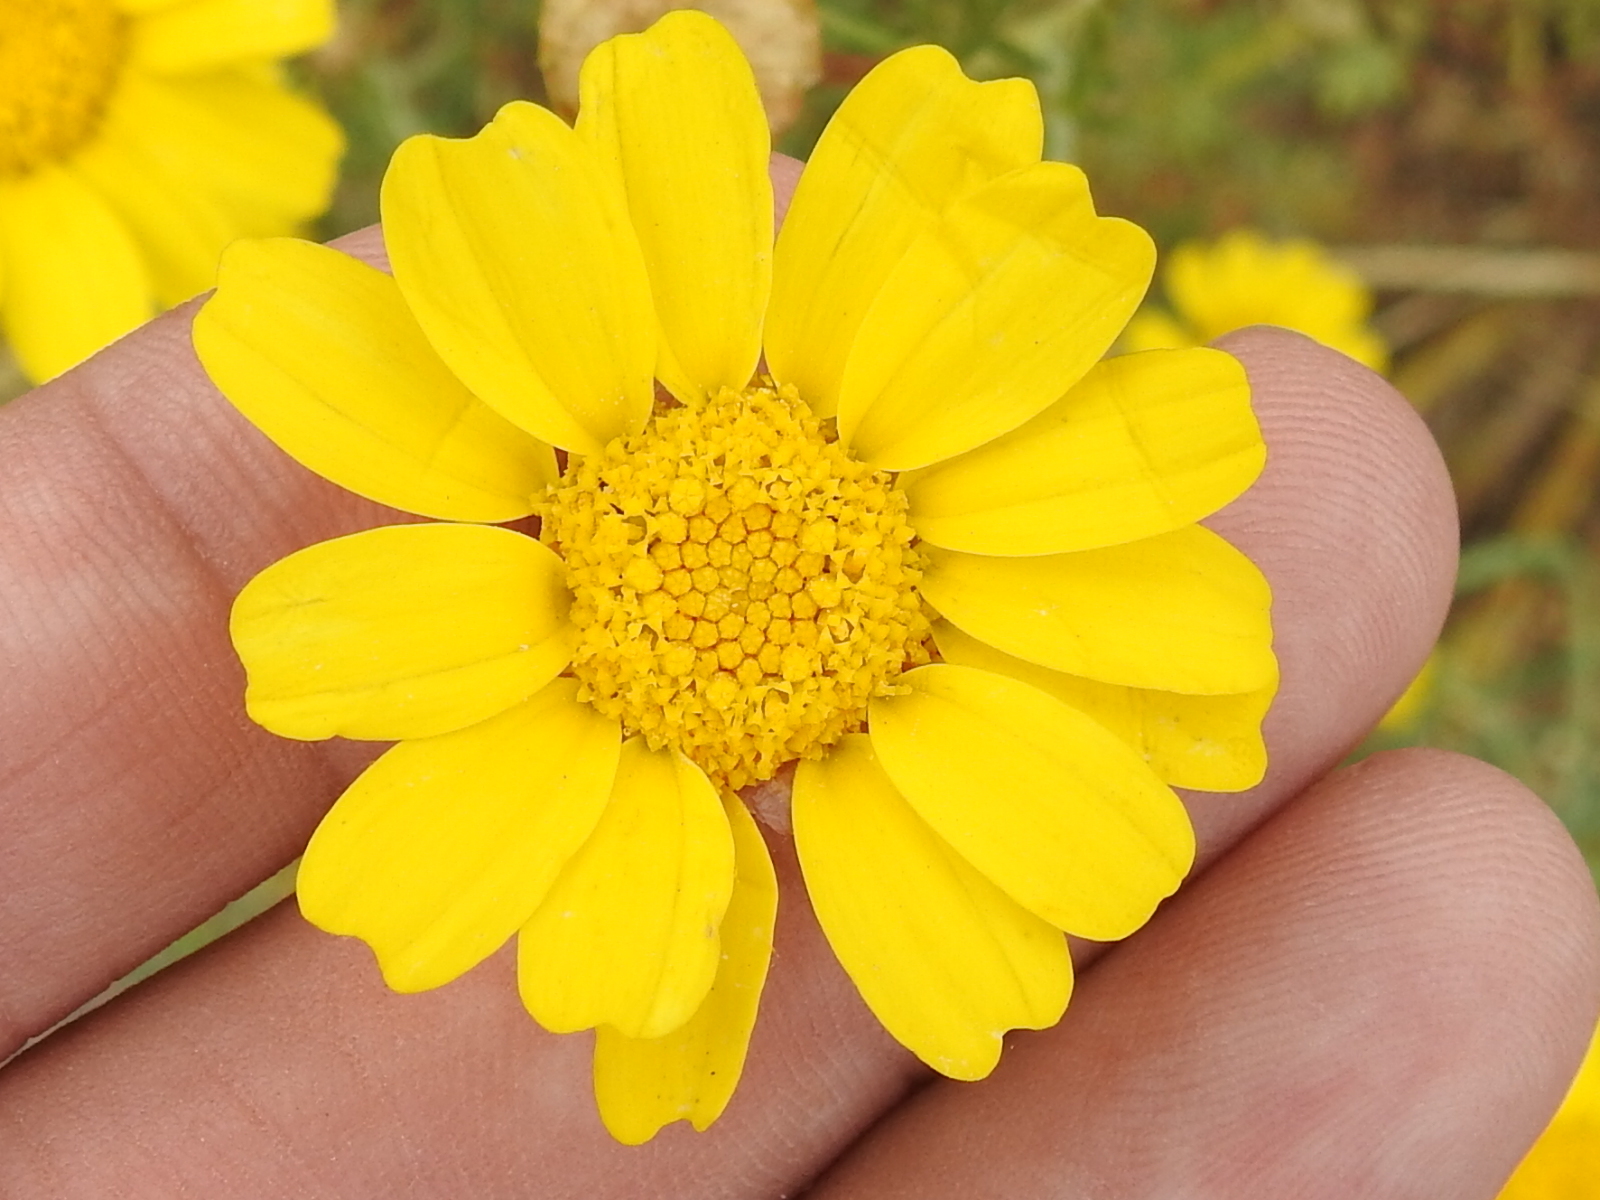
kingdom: Plantae
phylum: Tracheophyta
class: Magnoliopsida
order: Asterales
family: Asteraceae
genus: Glebionis
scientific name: Glebionis coronaria
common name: Crowndaisy
